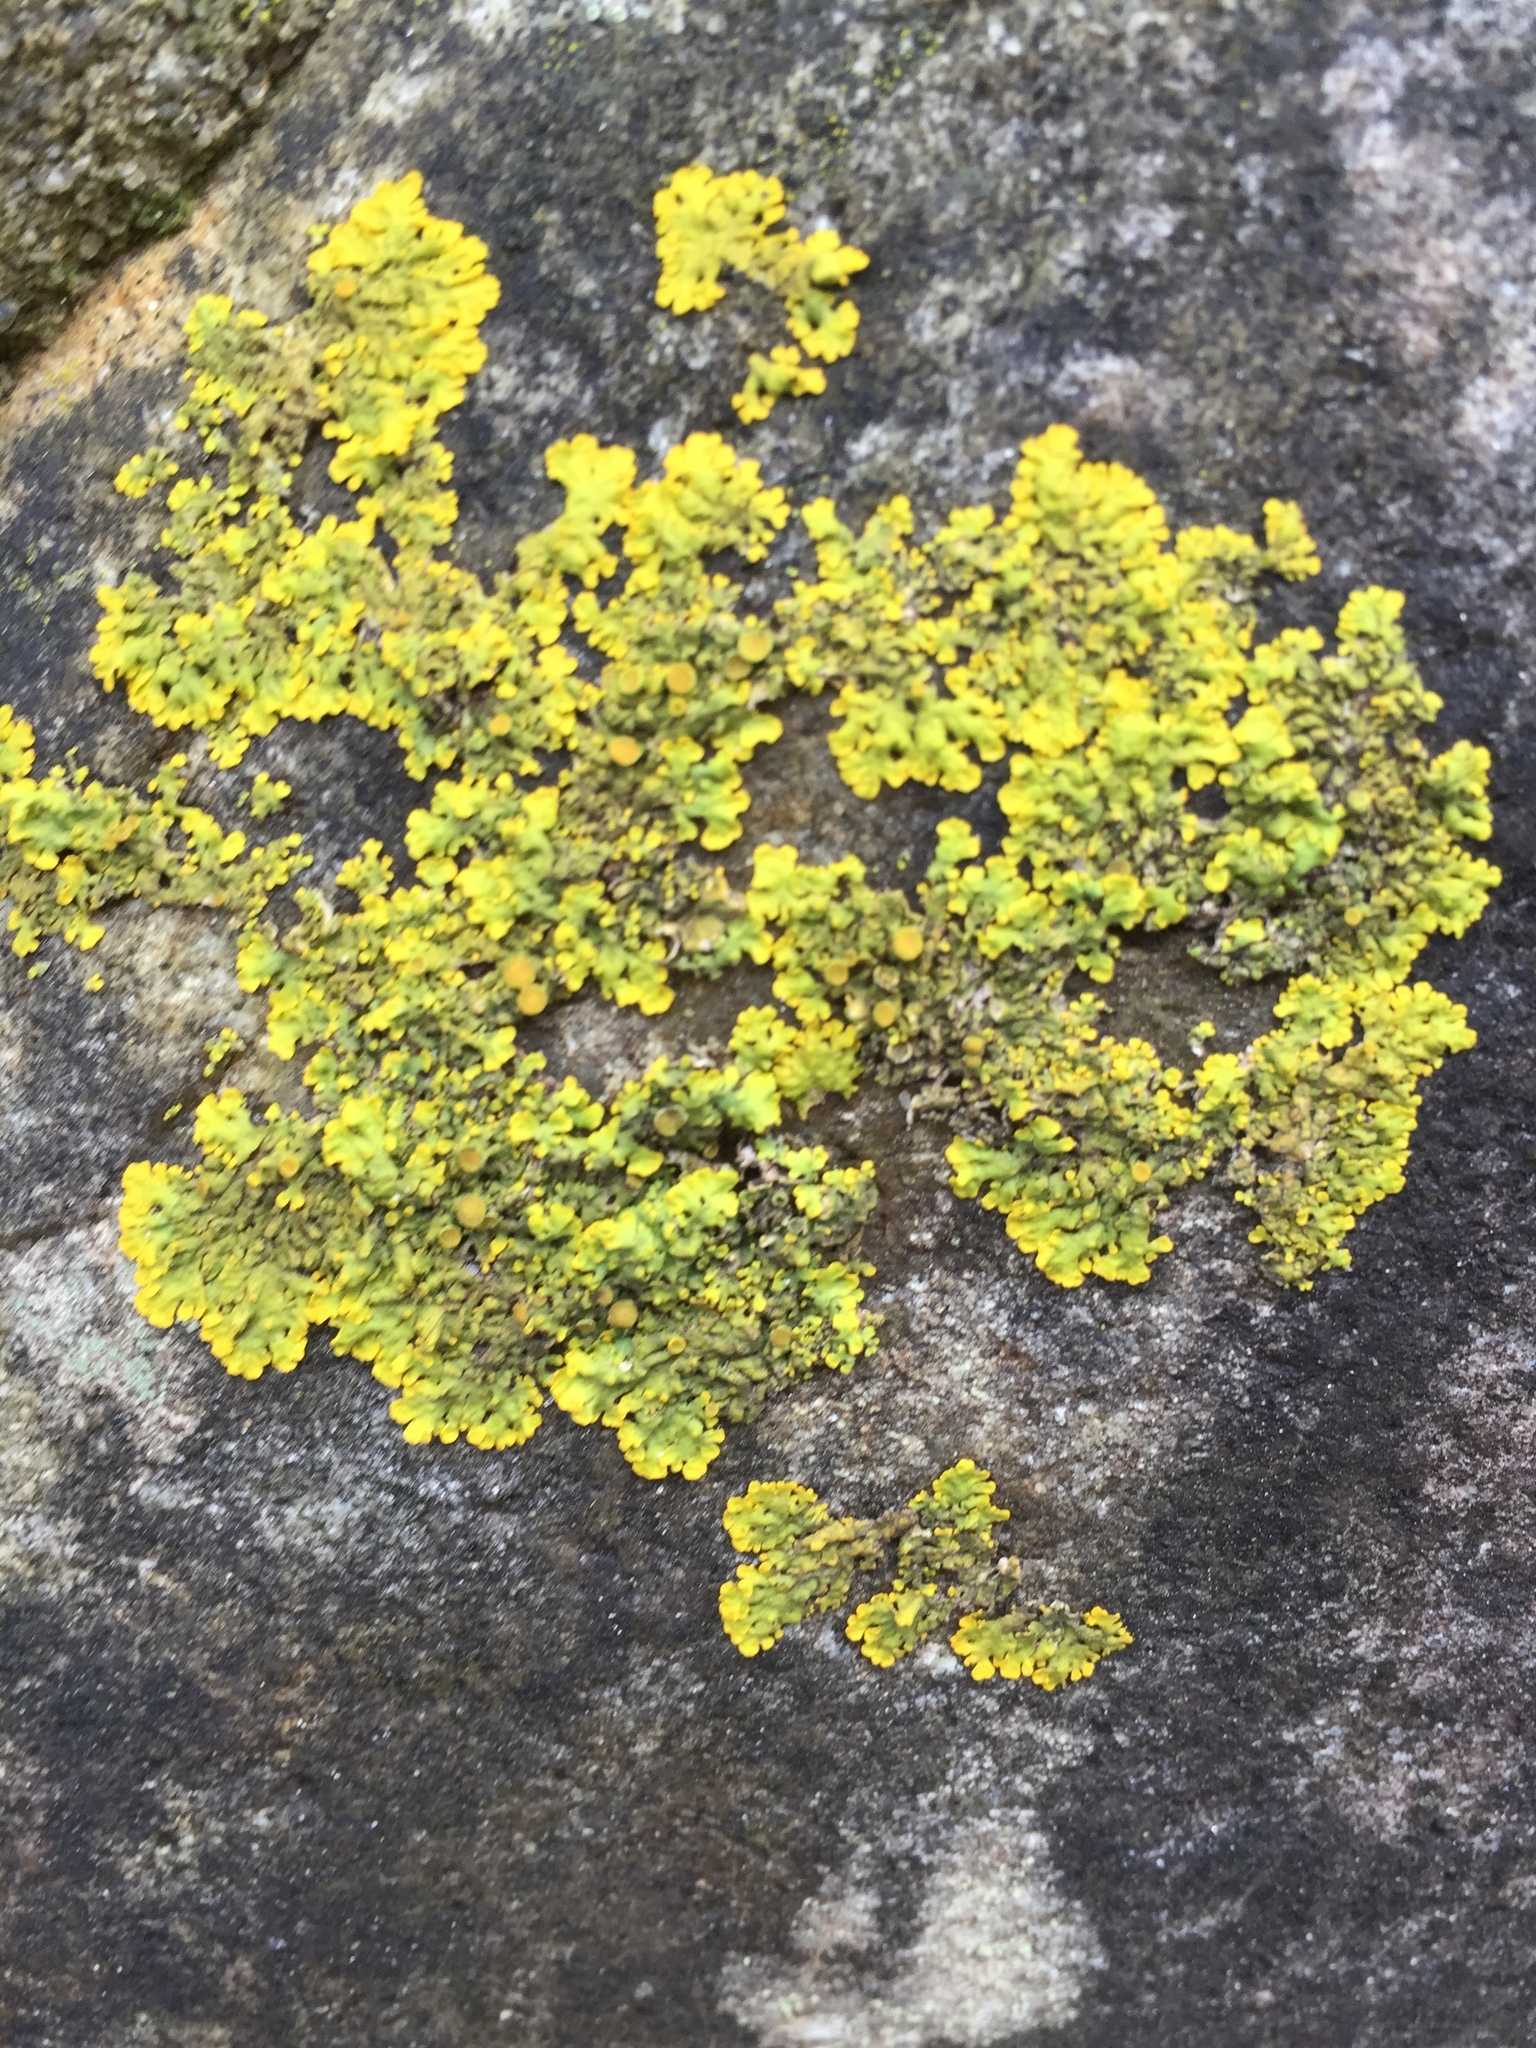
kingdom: Fungi
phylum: Ascomycota
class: Lecanoromycetes
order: Teloschistales
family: Teloschistaceae
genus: Xanthoria
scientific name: Xanthoria parietina
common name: Common orange lichen
